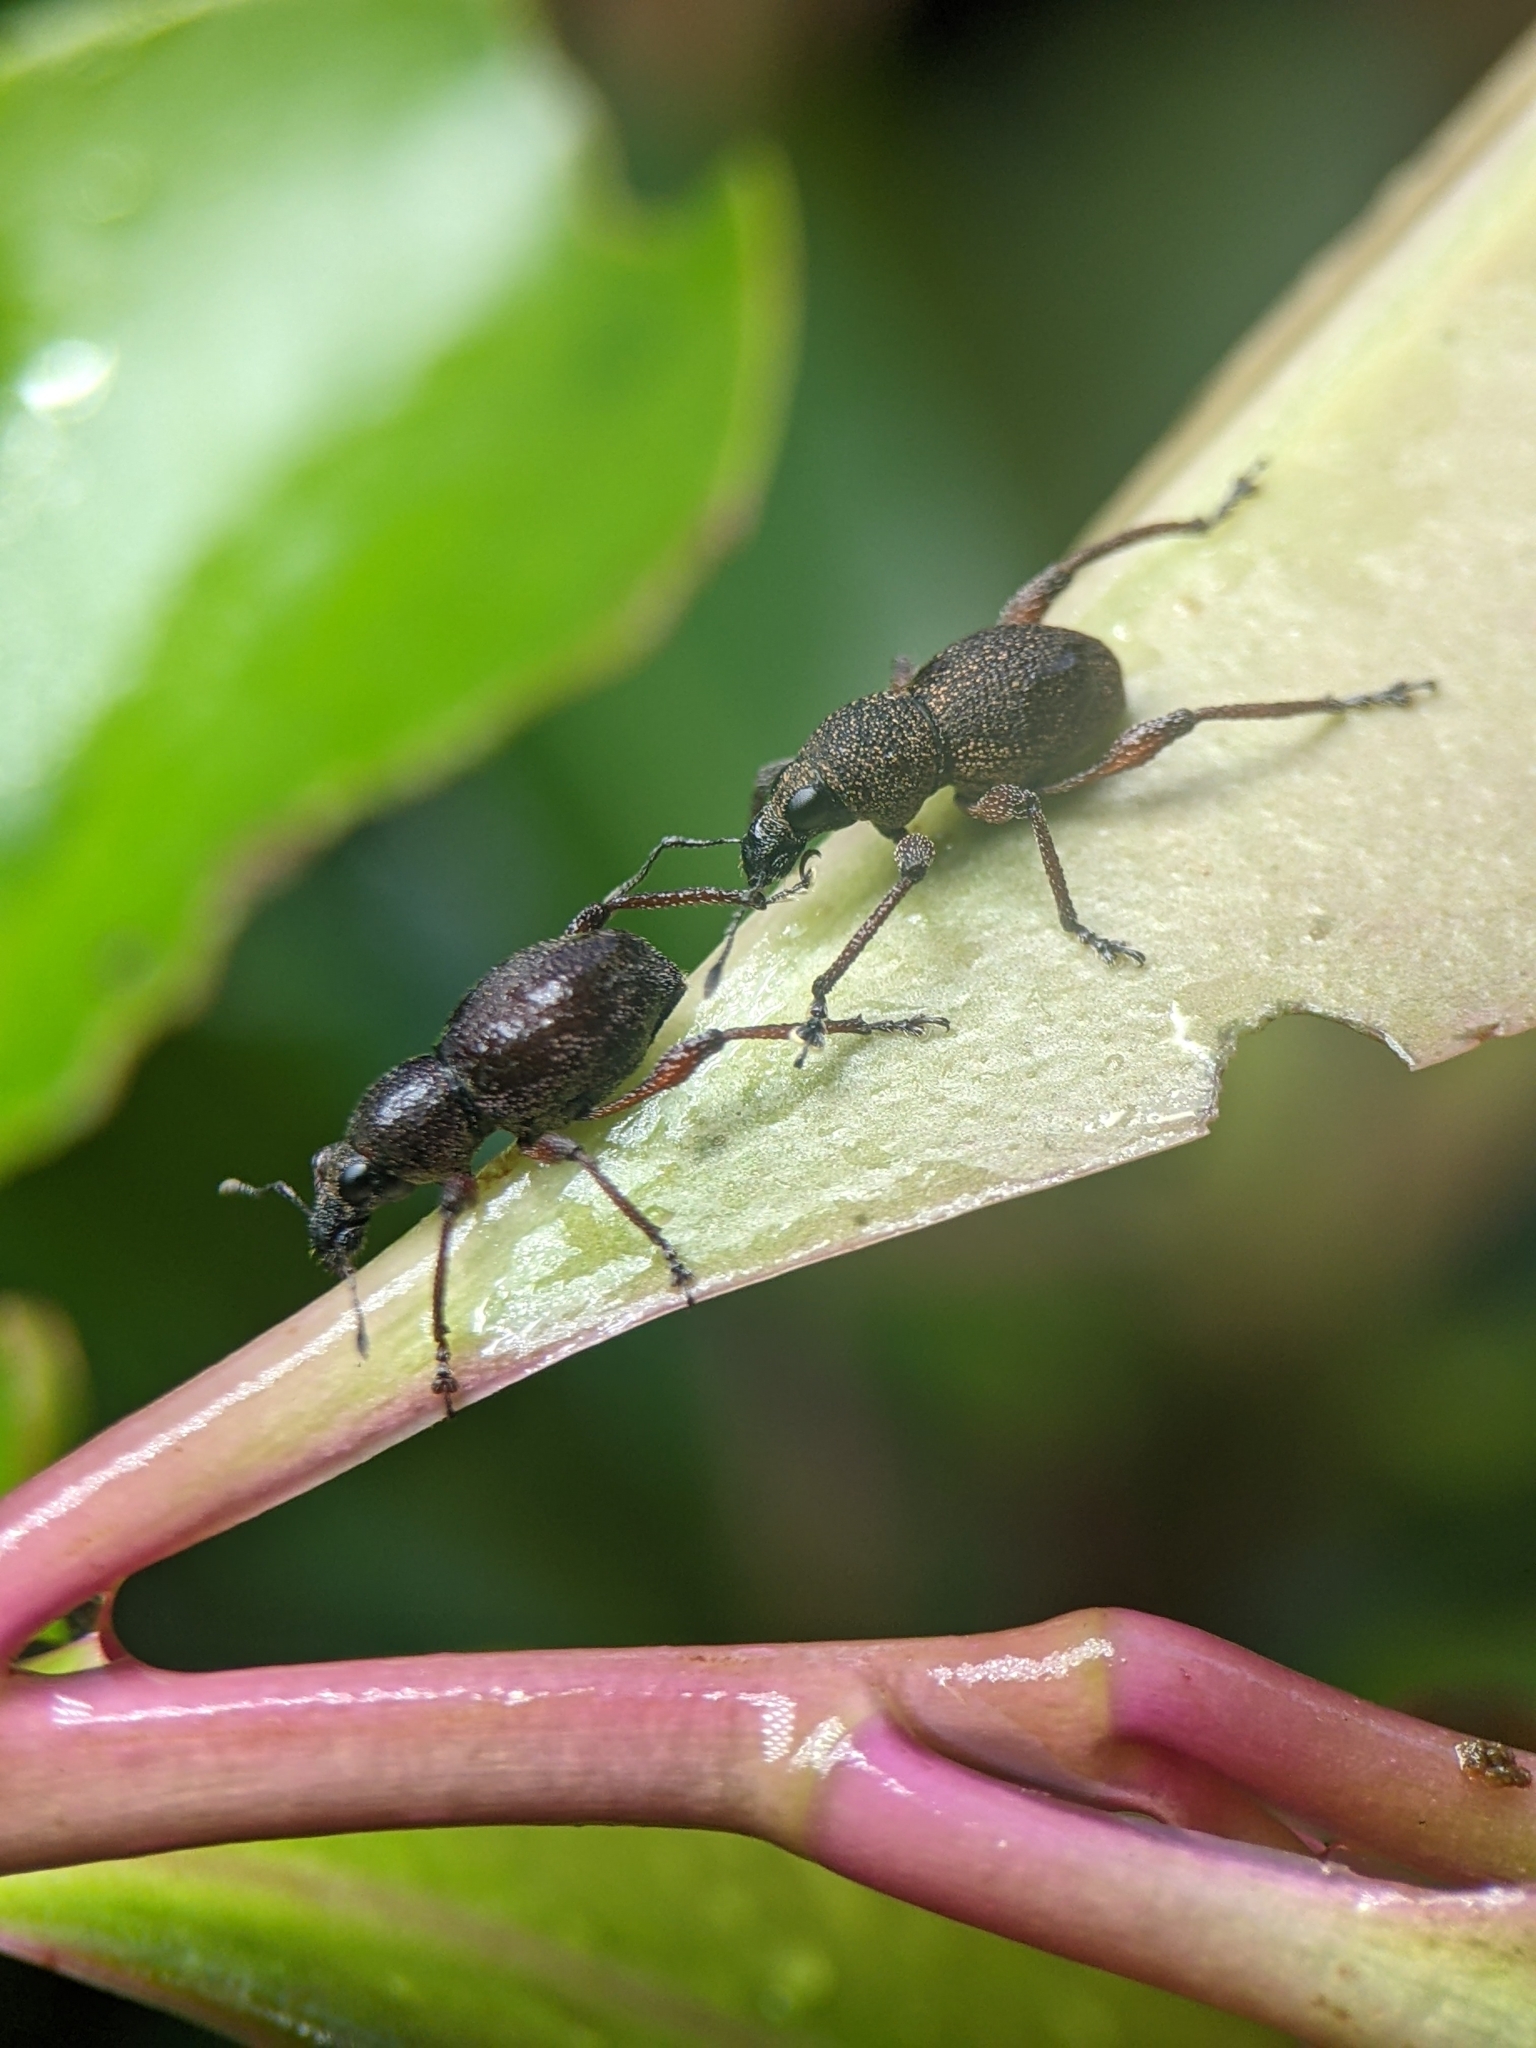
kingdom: Animalia
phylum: Arthropoda
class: Insecta
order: Coleoptera
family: Curculionidae
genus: Metapocyrtus
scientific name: Metapocyrtus adspersus
